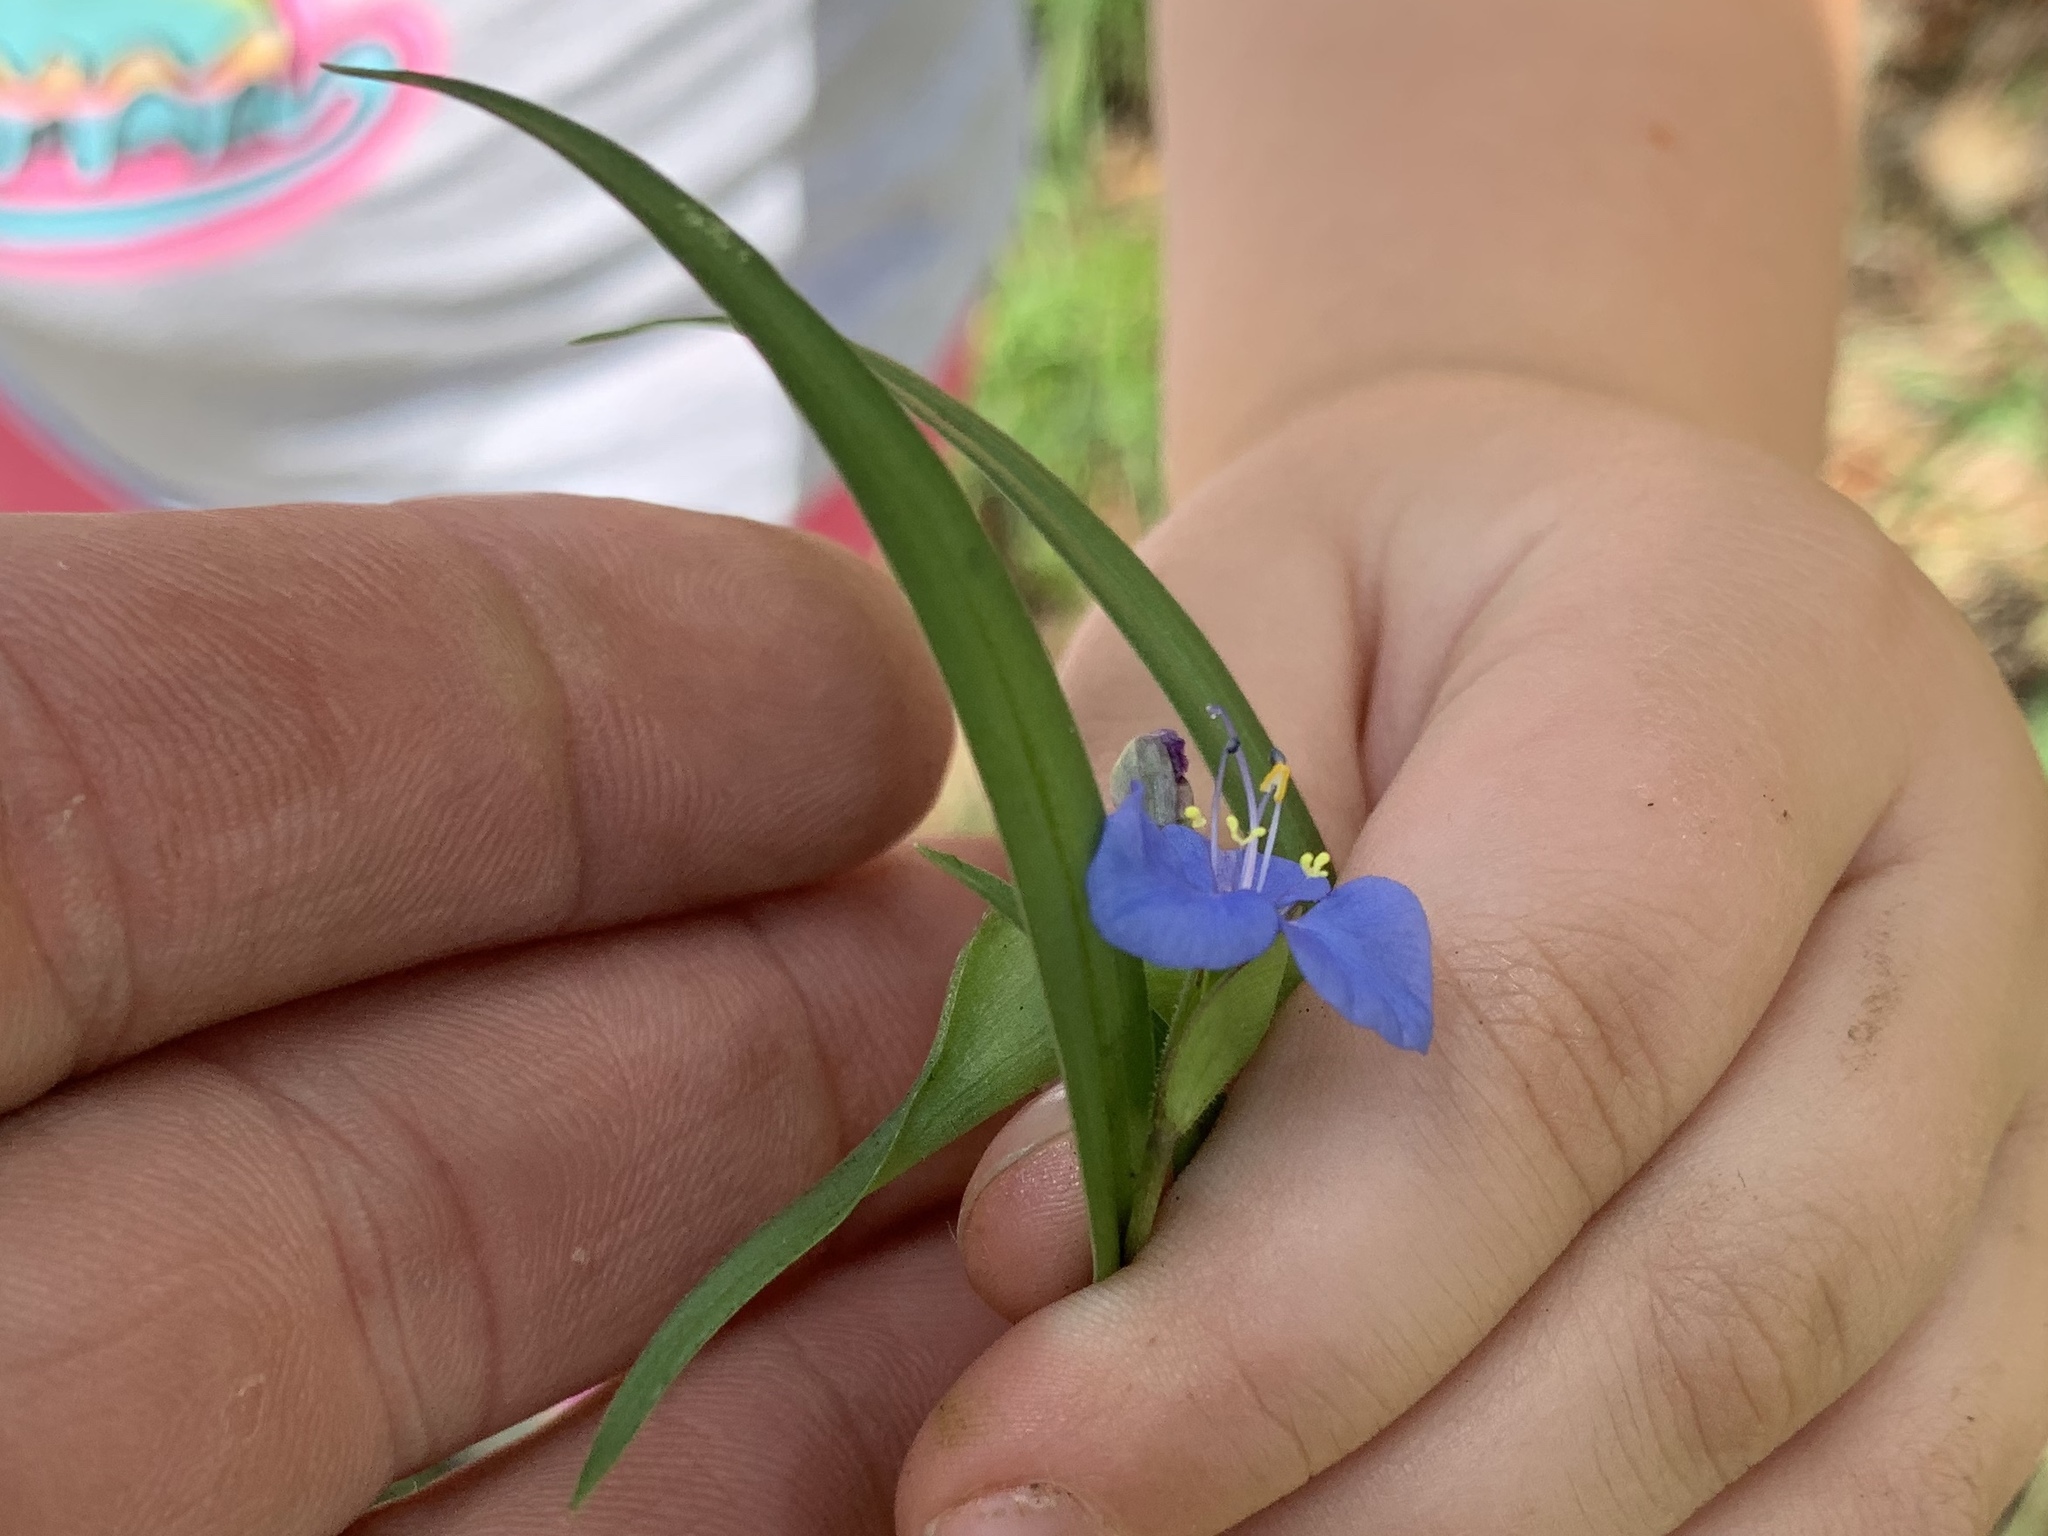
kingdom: Plantae
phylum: Tracheophyta
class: Liliopsida
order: Commelinales
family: Commelinaceae
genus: Commelina
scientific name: Commelina dianthifolia
